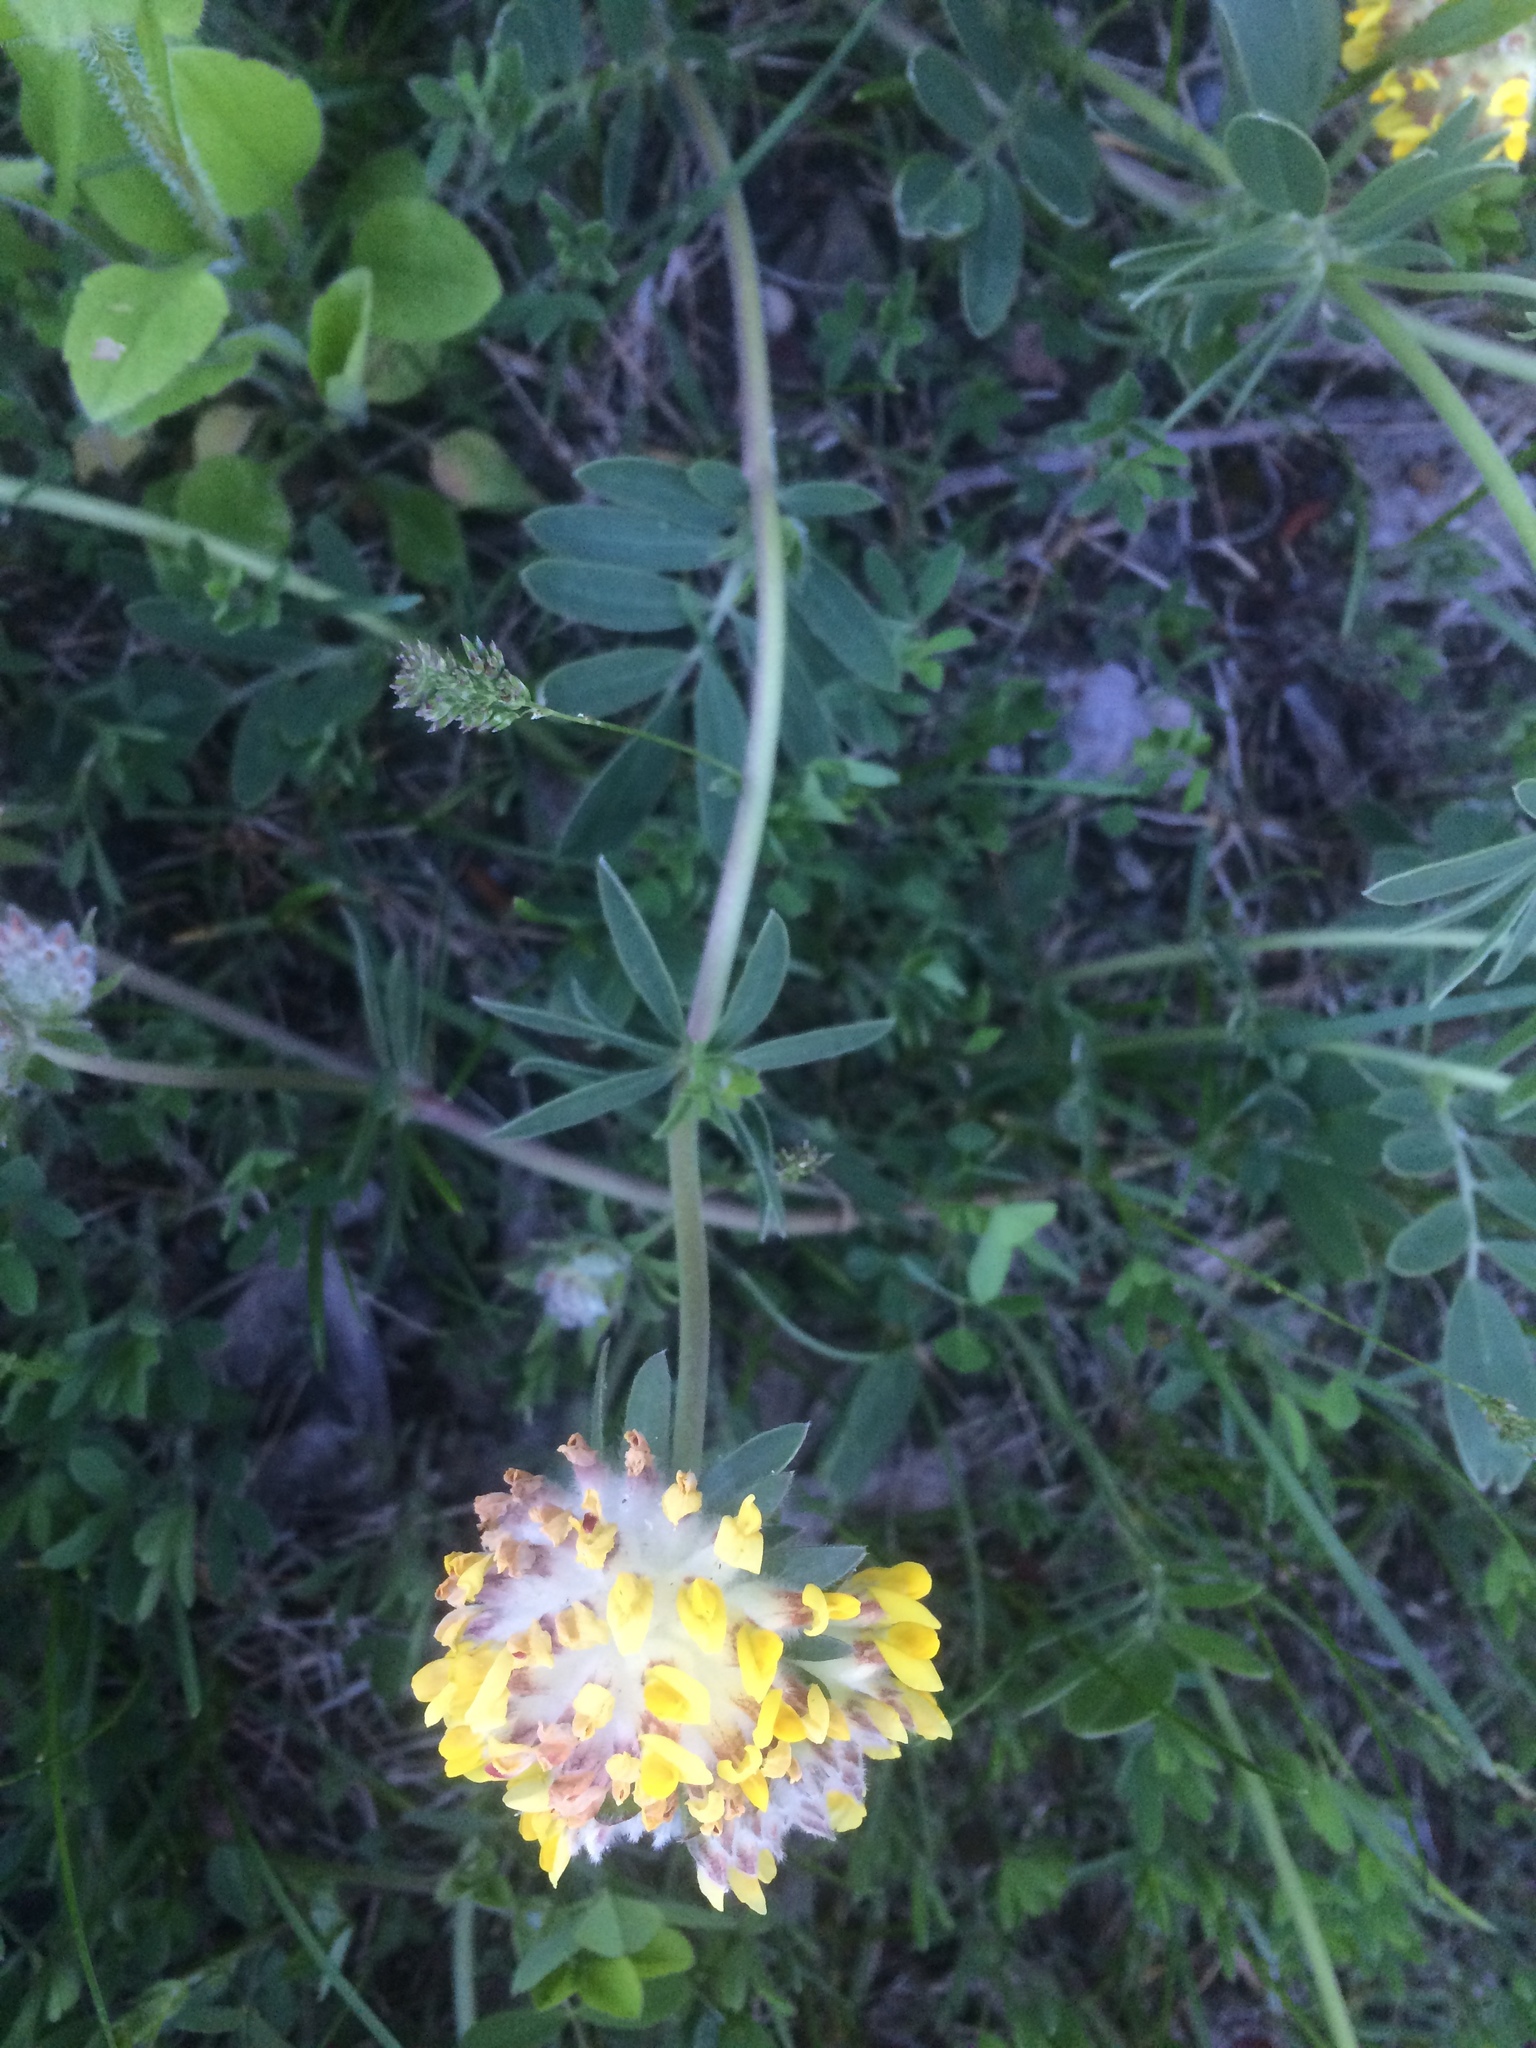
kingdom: Plantae
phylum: Tracheophyta
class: Magnoliopsida
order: Fabales
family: Fabaceae
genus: Anthyllis
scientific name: Anthyllis vulneraria
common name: Kidney vetch
